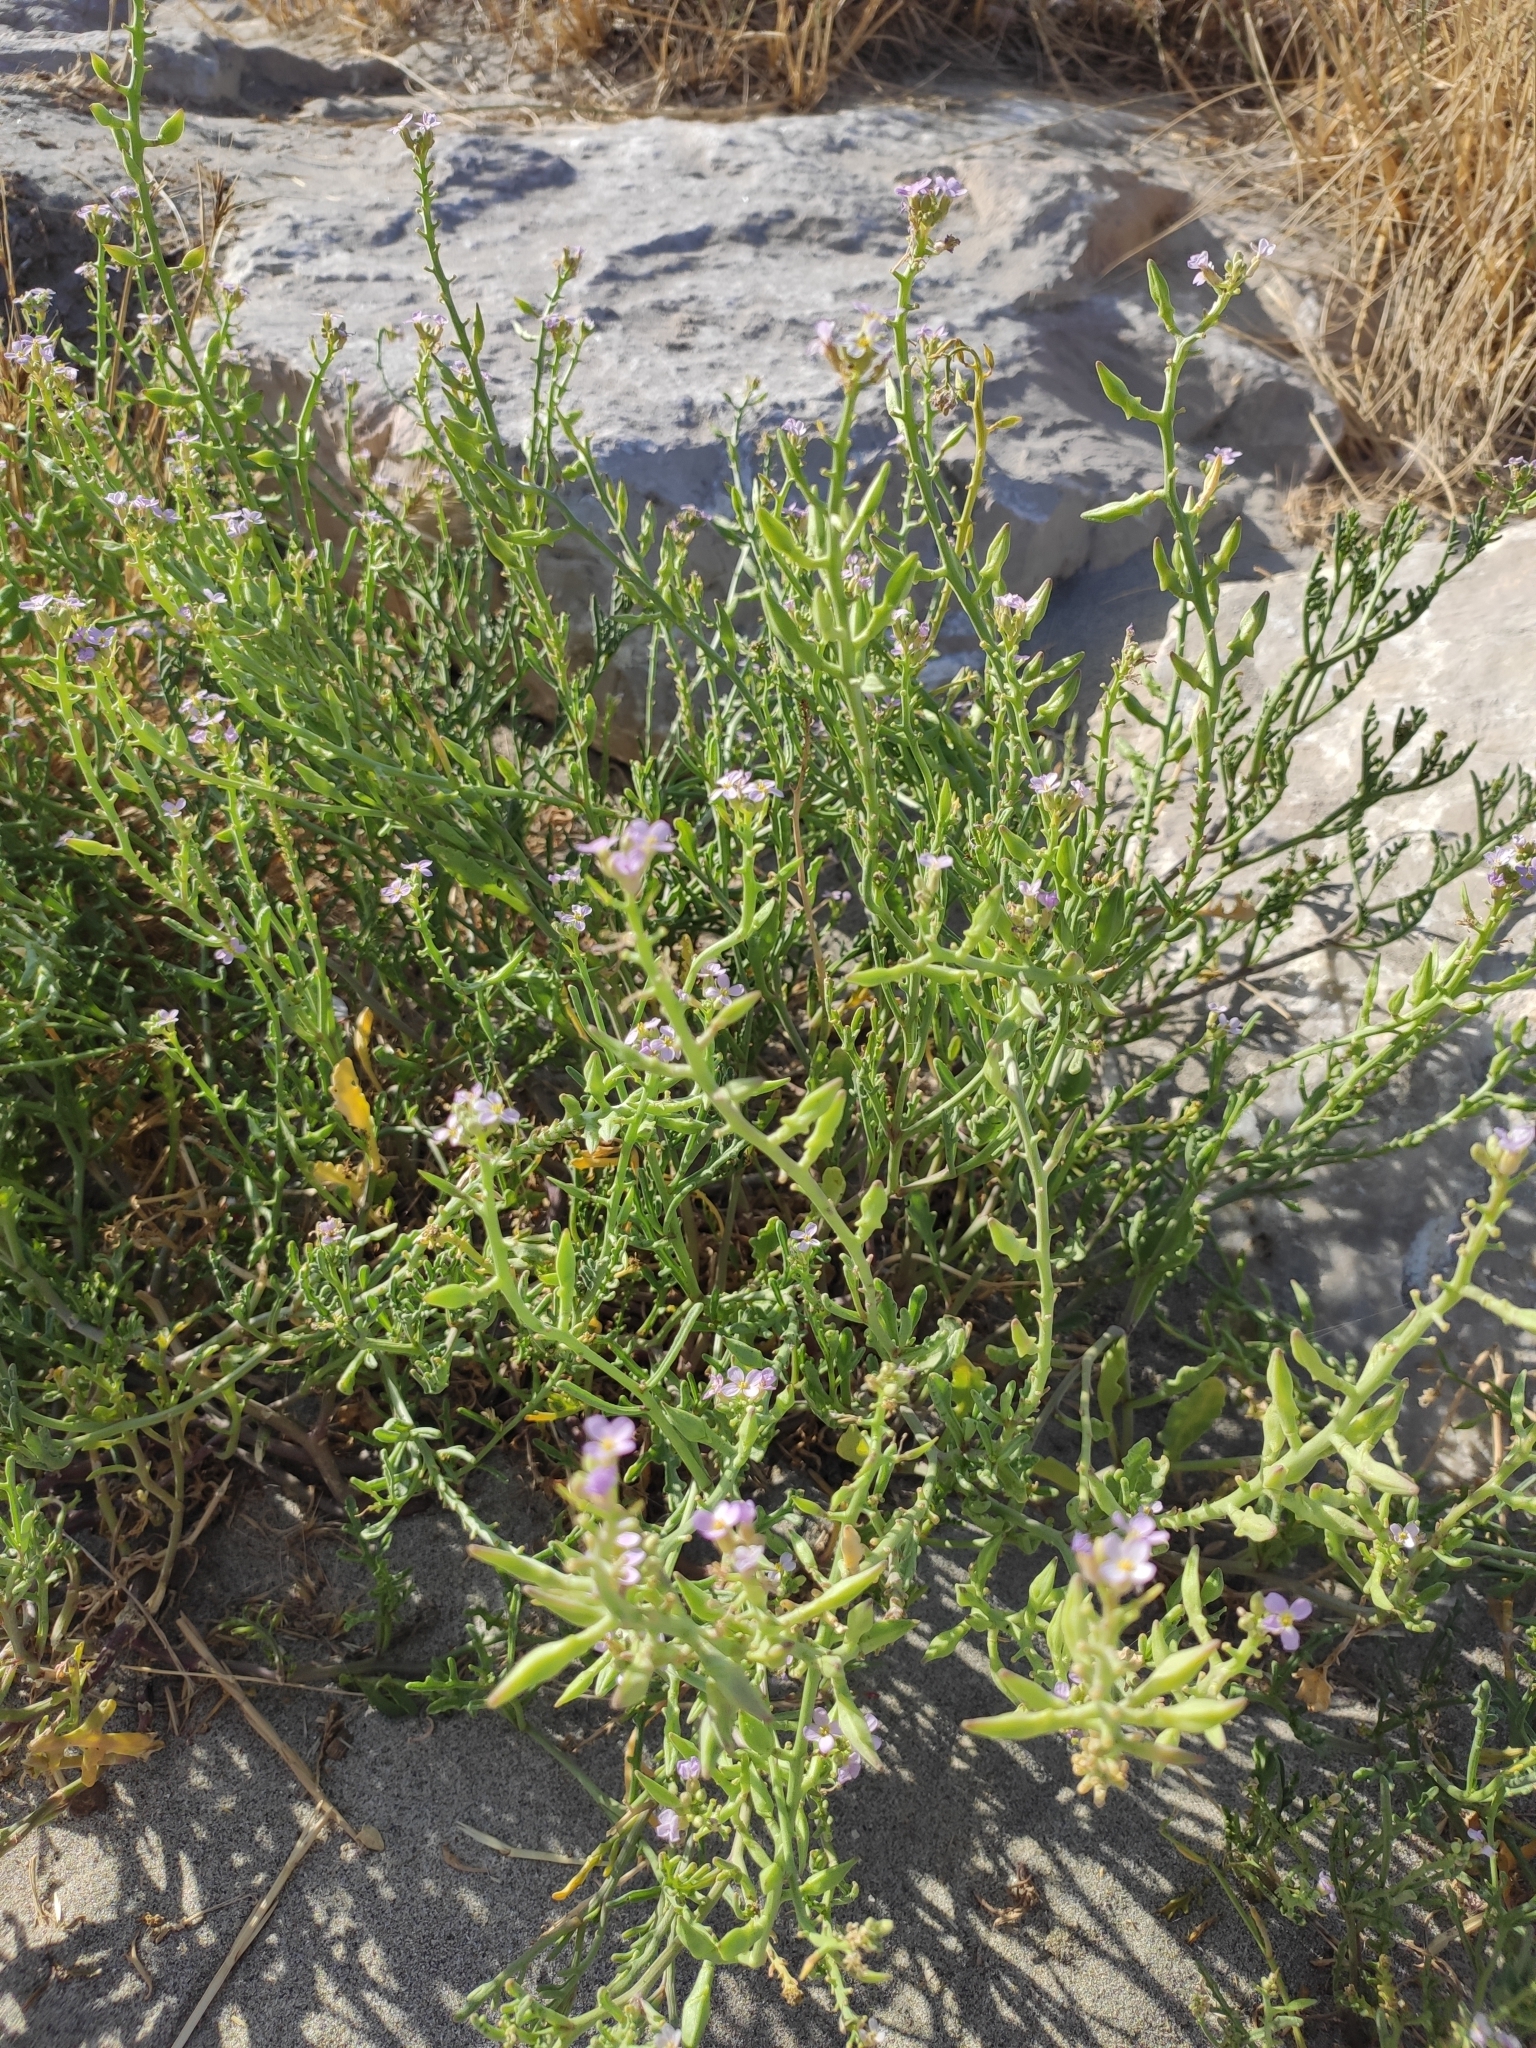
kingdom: Plantae
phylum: Tracheophyta
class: Magnoliopsida
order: Brassicales
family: Brassicaceae
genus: Cakile
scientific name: Cakile maritima
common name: Sea rocket
